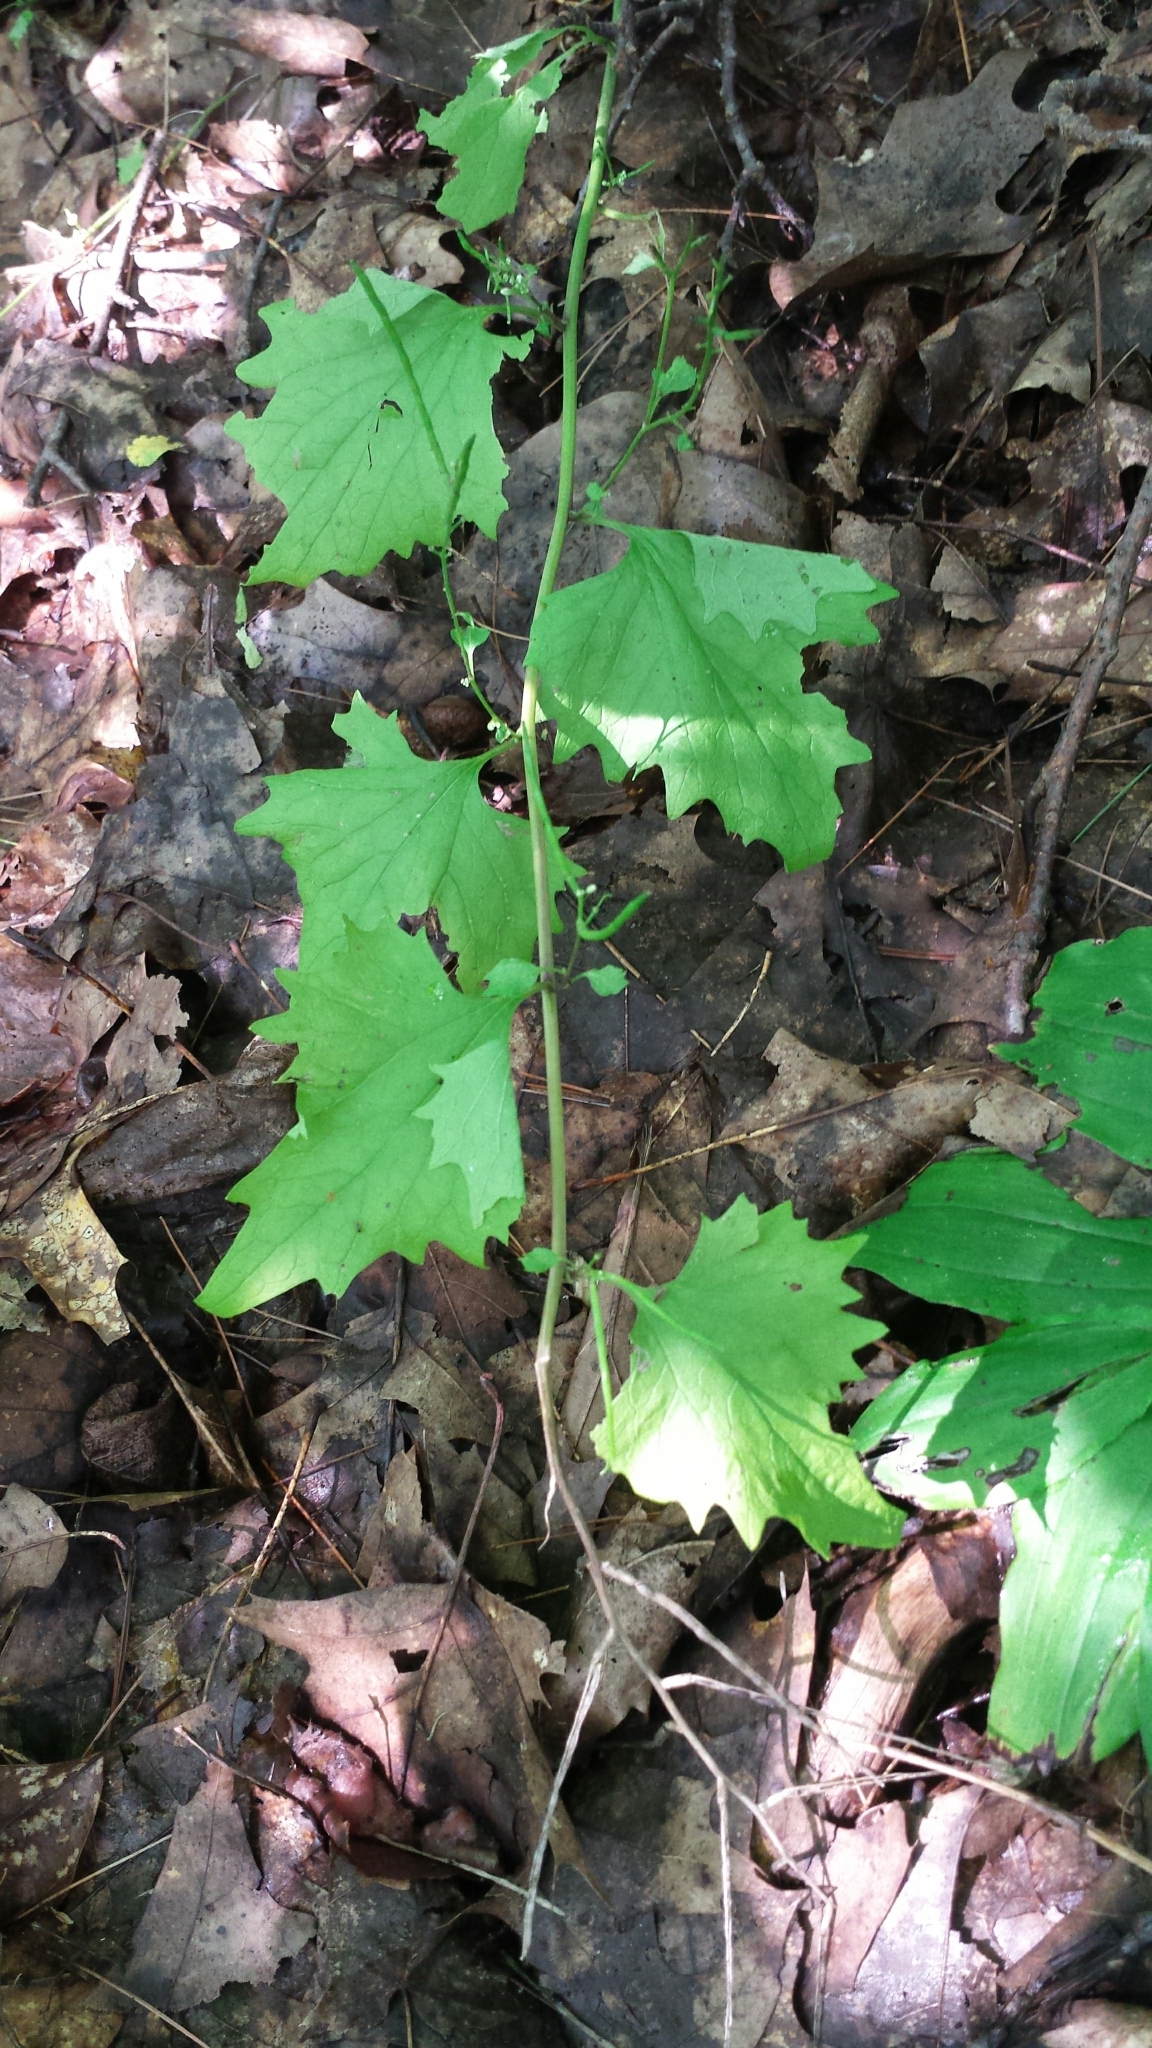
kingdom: Plantae
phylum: Tracheophyta
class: Magnoliopsida
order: Brassicales
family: Brassicaceae
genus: Alliaria
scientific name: Alliaria petiolata
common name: Garlic mustard
